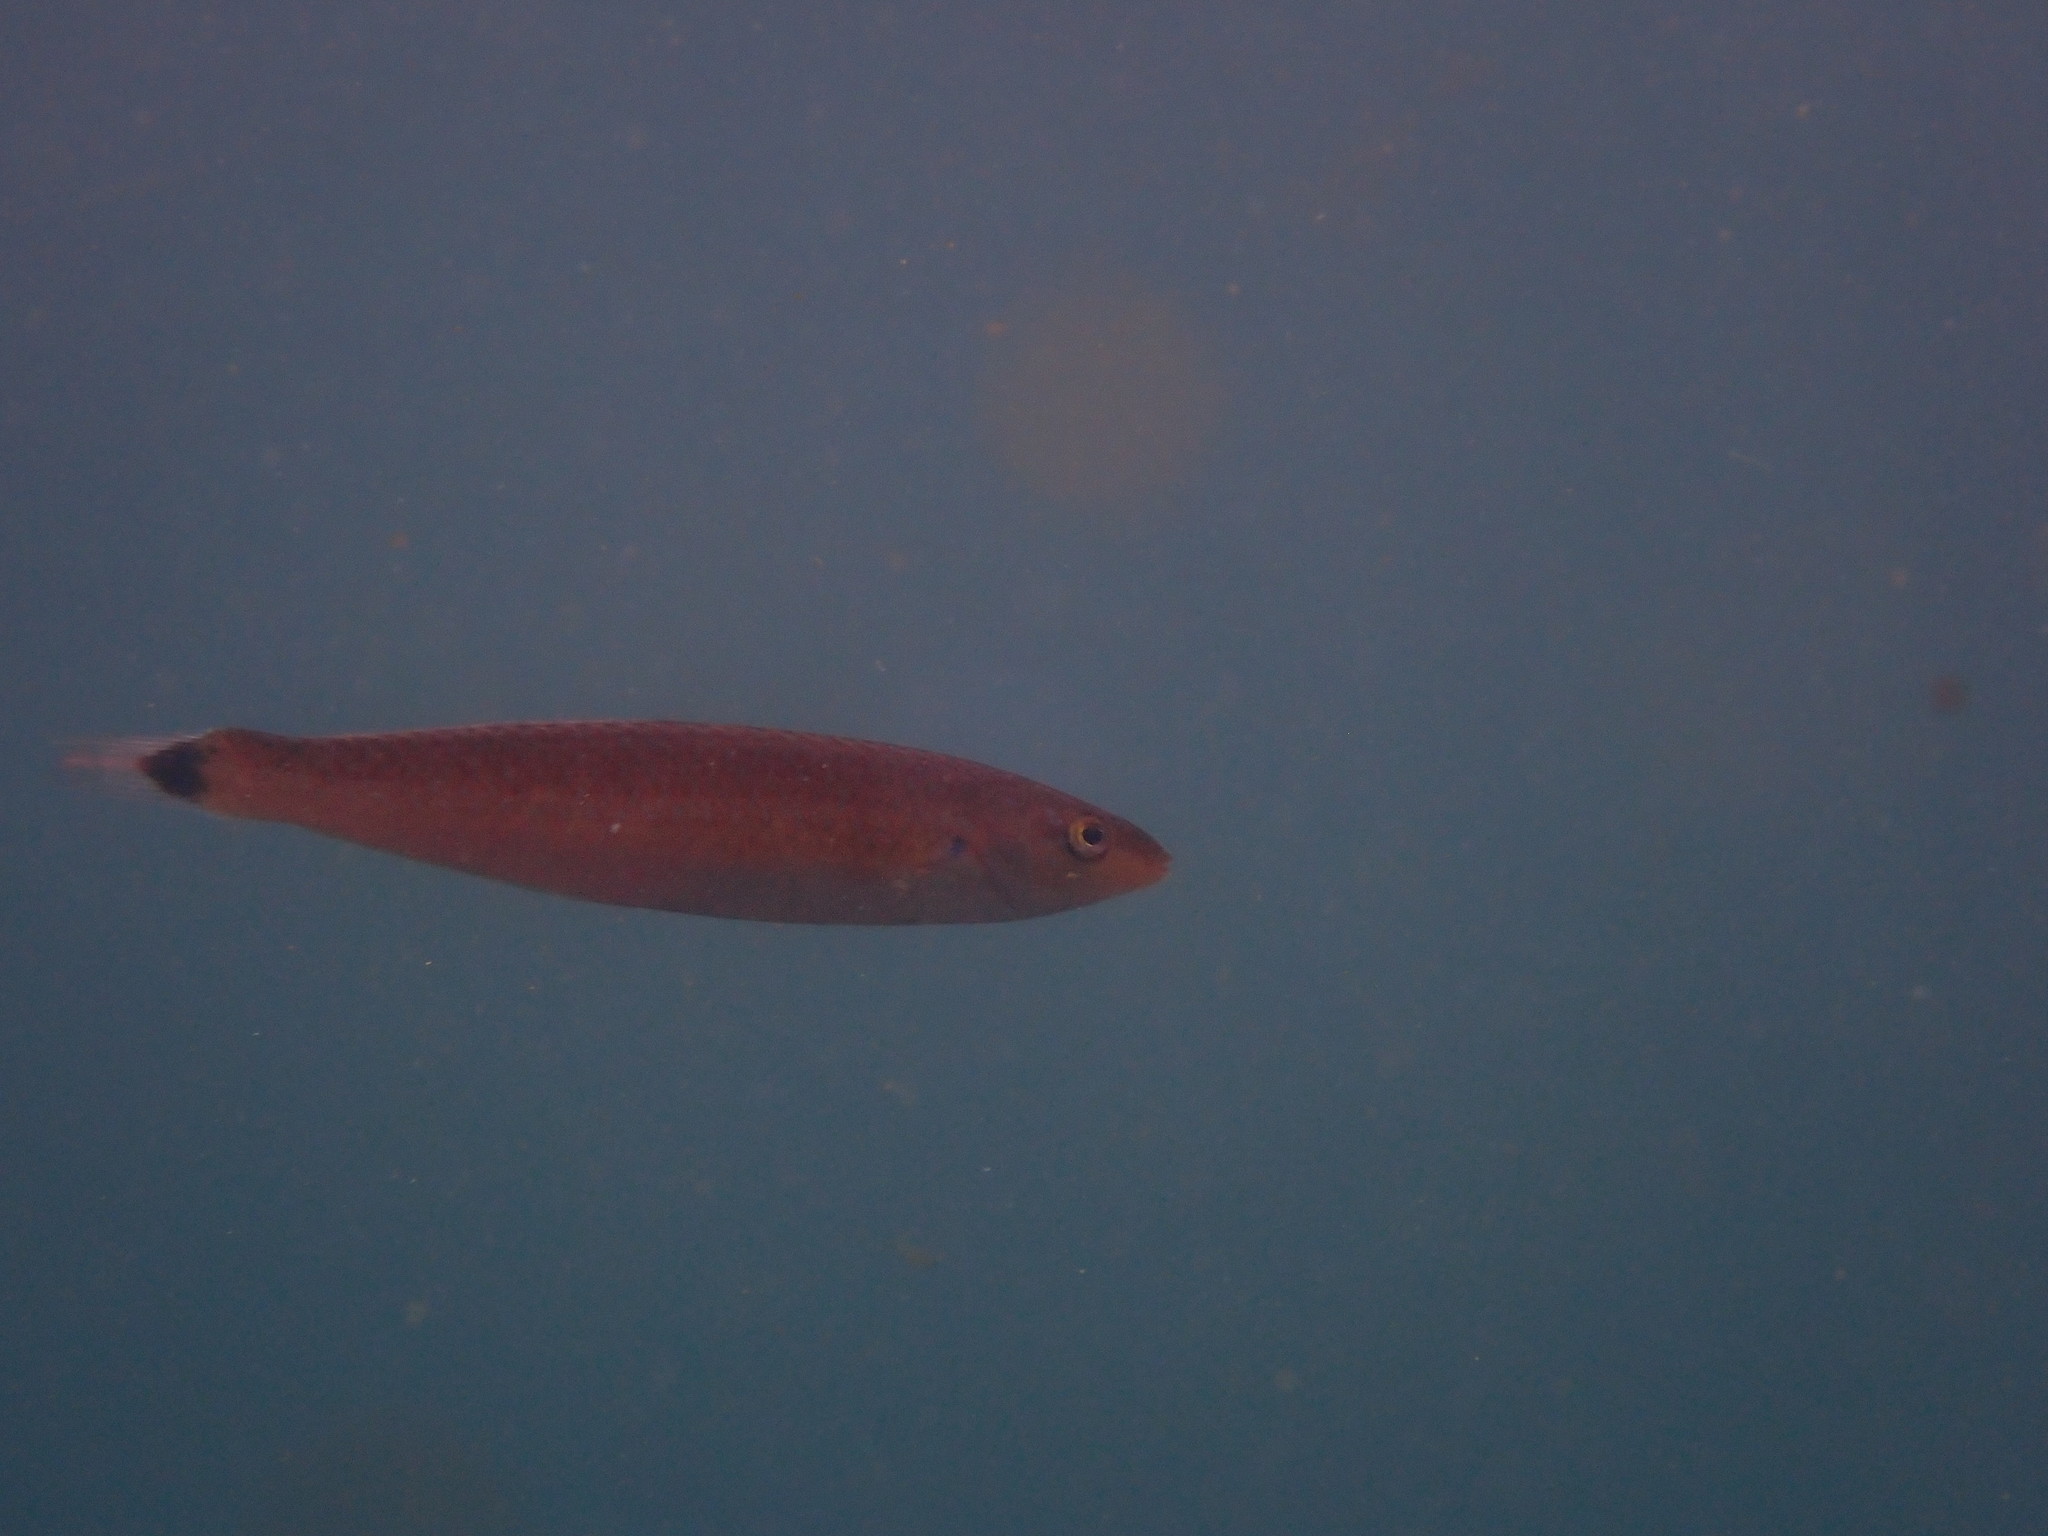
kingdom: Animalia
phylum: Chordata
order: Perciformes
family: Labridae
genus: Oxyjulis
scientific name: Oxyjulis californica
